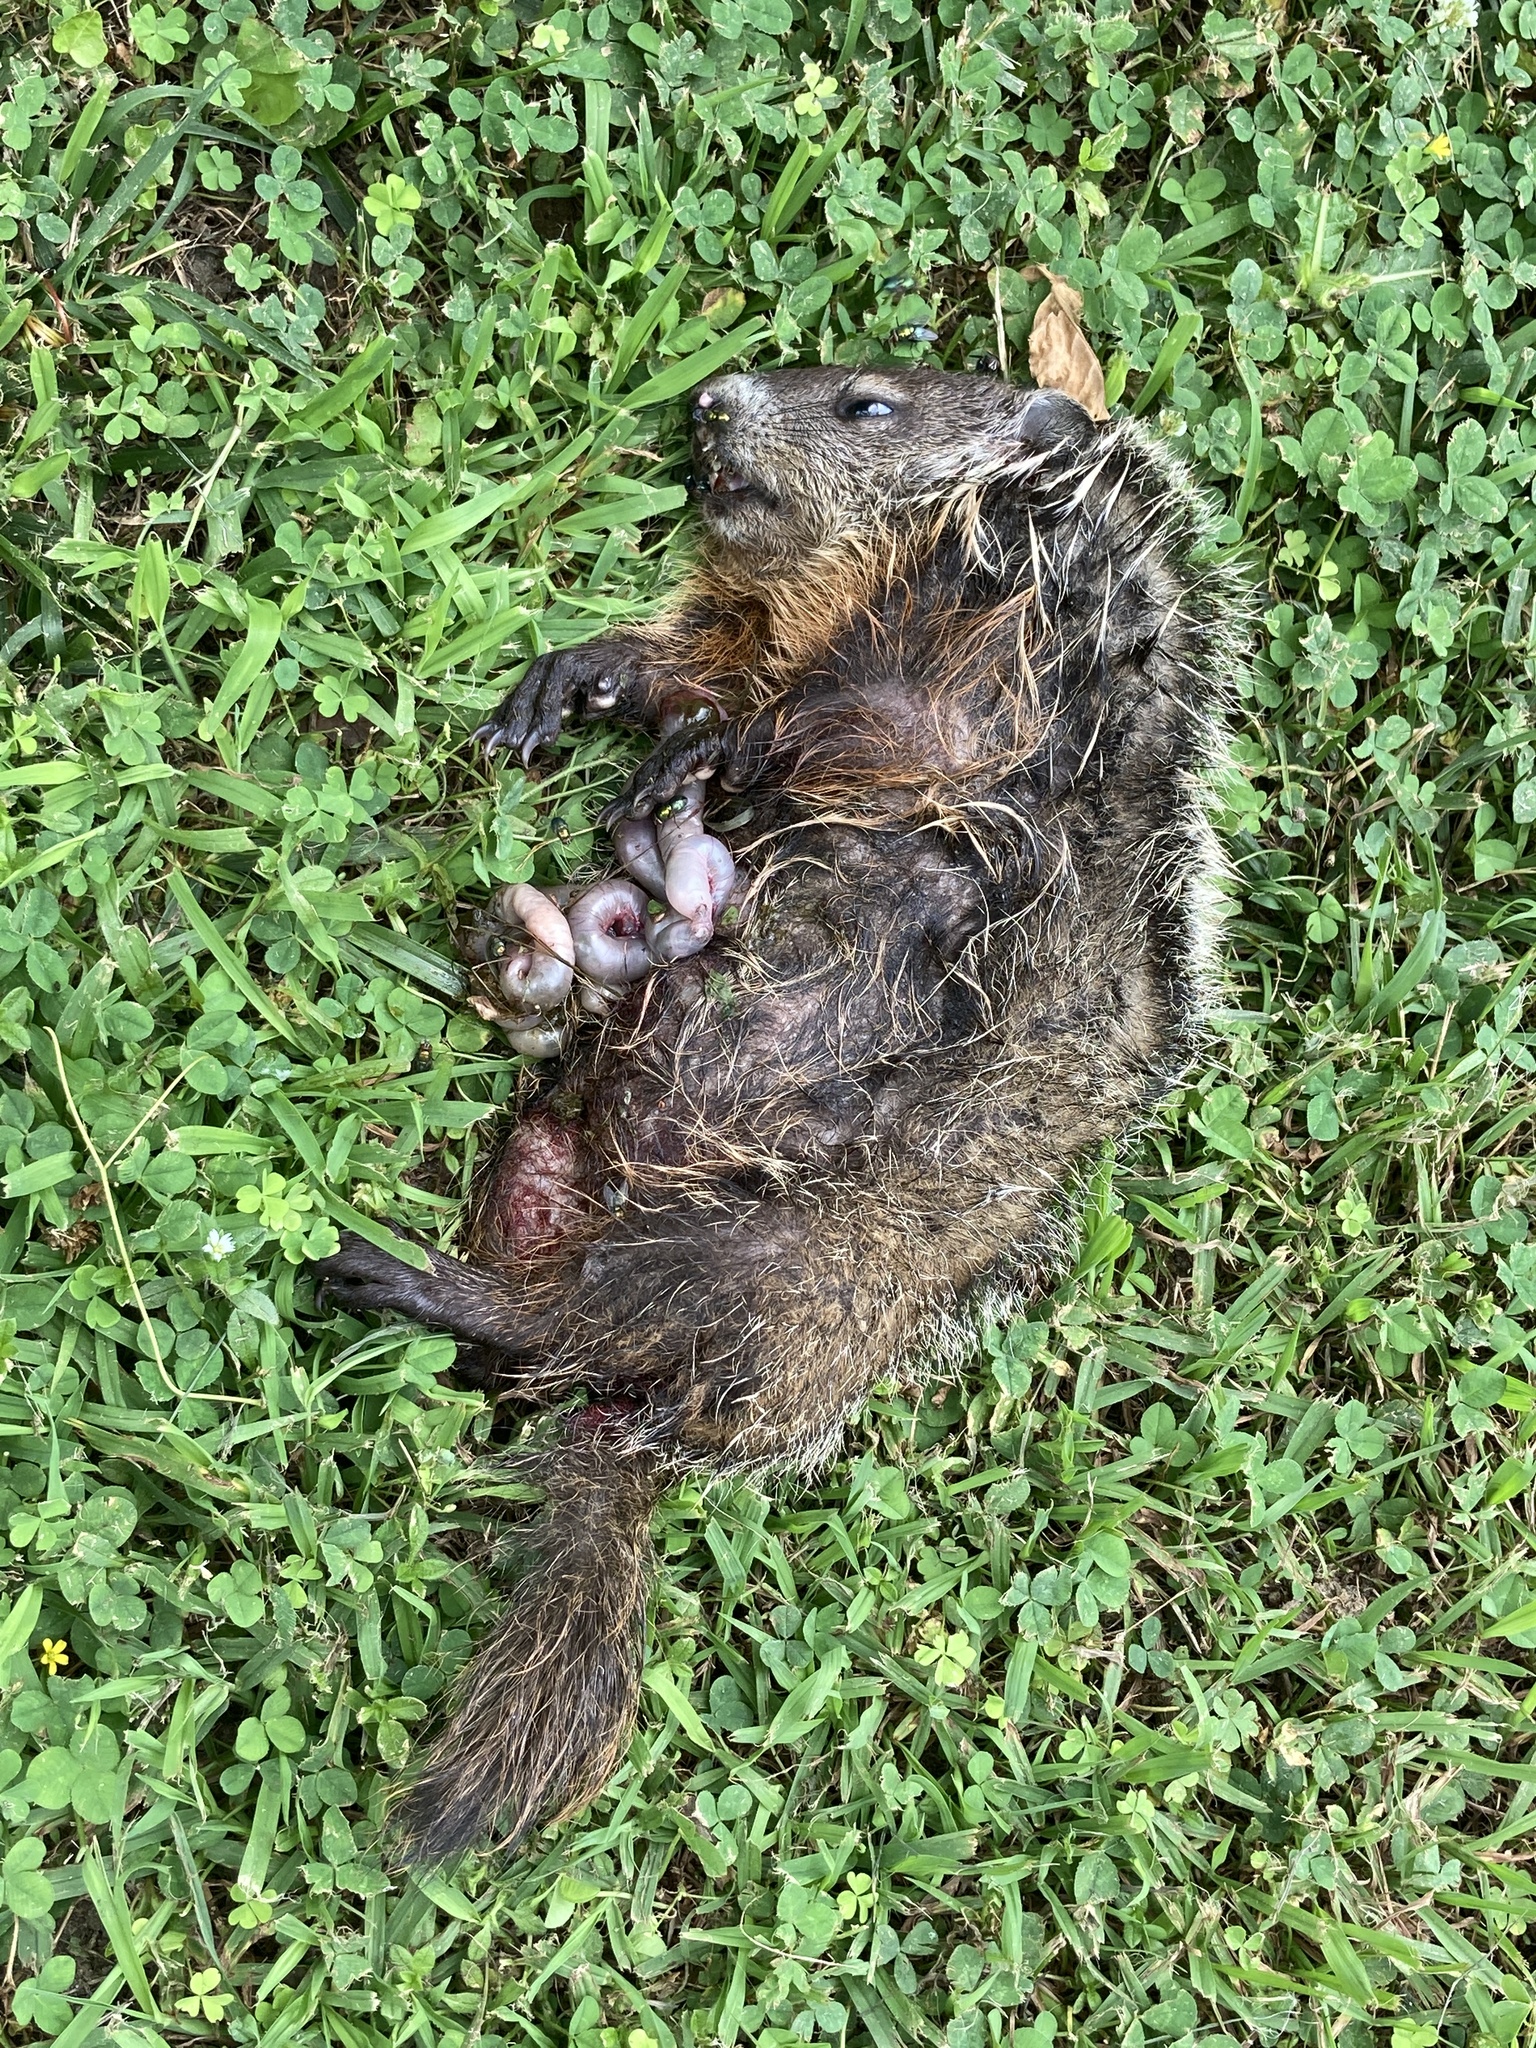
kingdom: Animalia
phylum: Chordata
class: Mammalia
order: Rodentia
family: Sciuridae
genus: Marmota
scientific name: Marmota monax
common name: Groundhog
